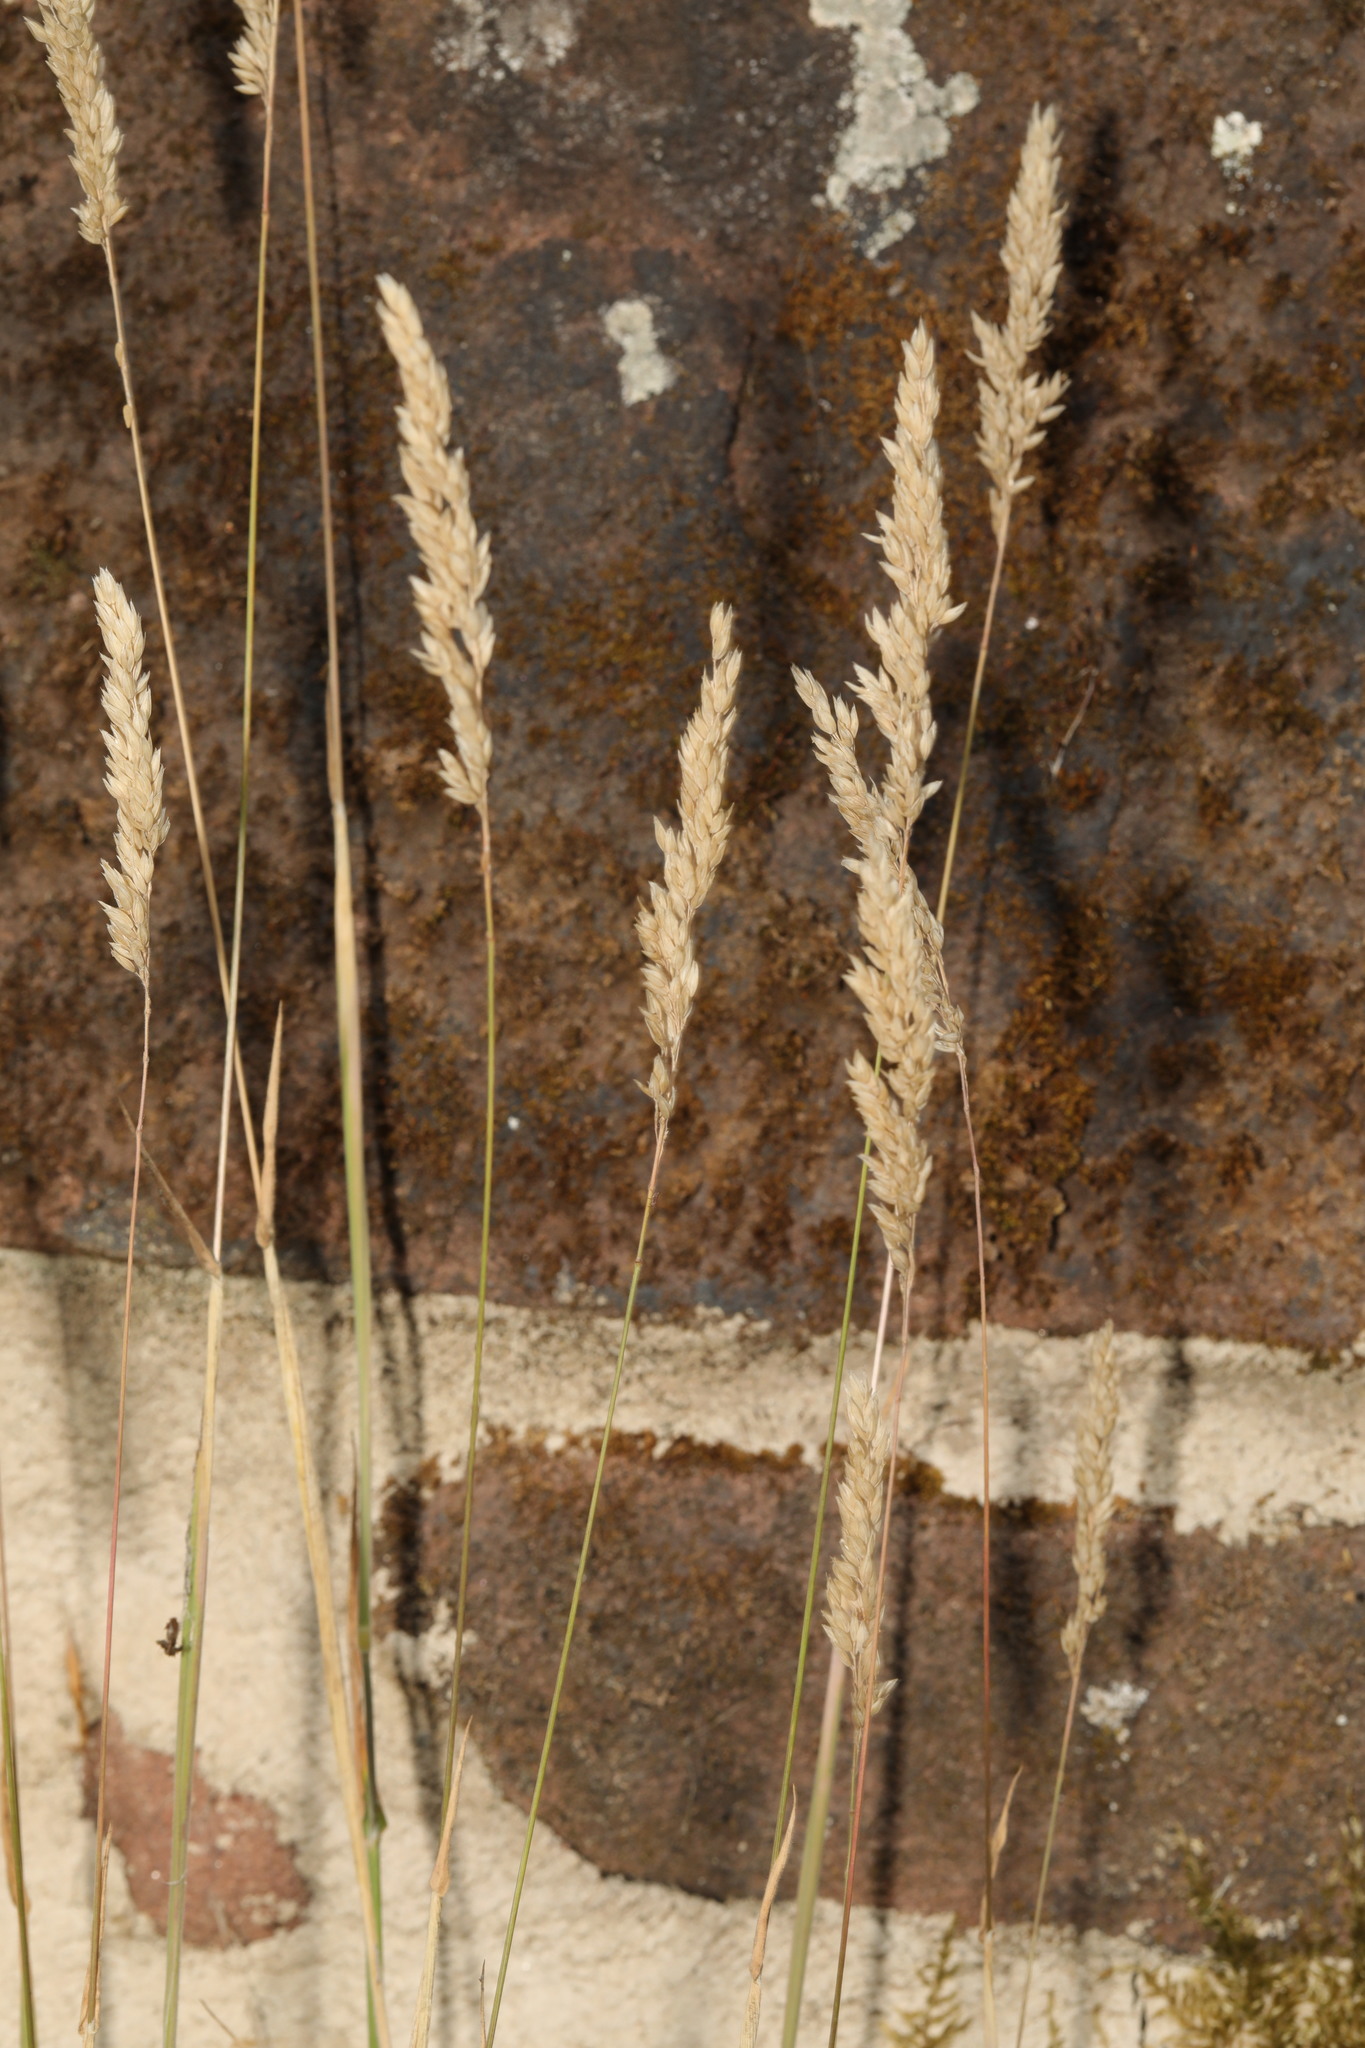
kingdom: Plantae
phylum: Tracheophyta
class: Liliopsida
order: Poales
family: Poaceae
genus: Holcus
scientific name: Holcus lanatus
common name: Yorkshire-fog
